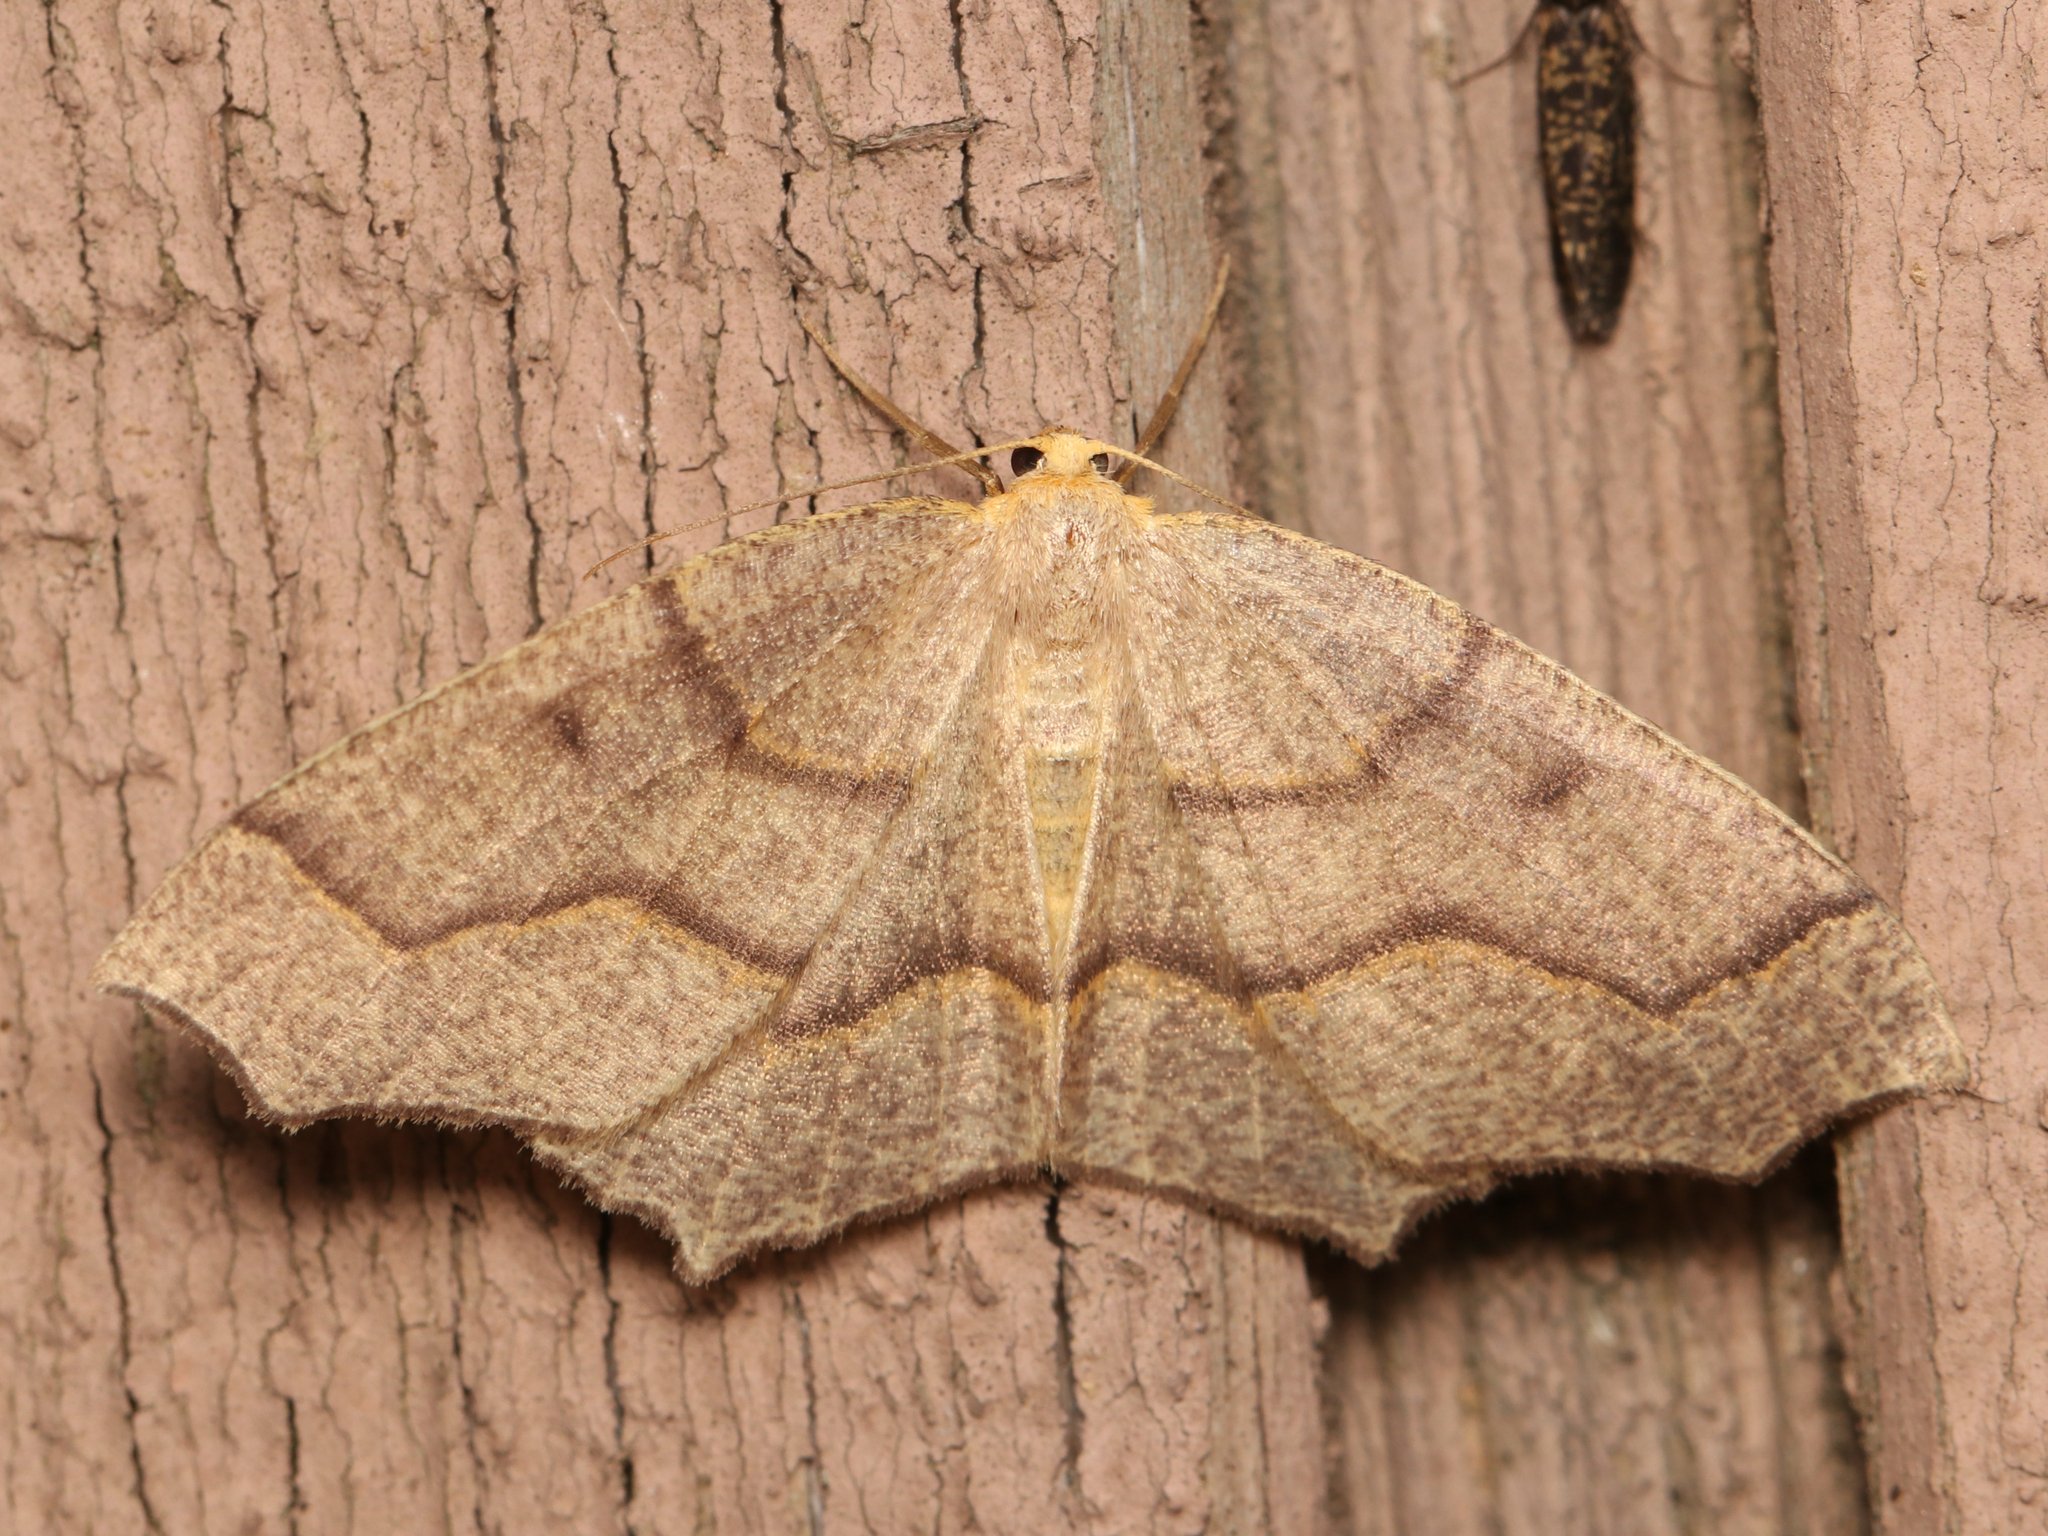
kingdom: Animalia
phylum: Arthropoda
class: Insecta
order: Lepidoptera
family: Geometridae
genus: Lambdina
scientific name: Lambdina fiscellaria
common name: Hemlock looper
